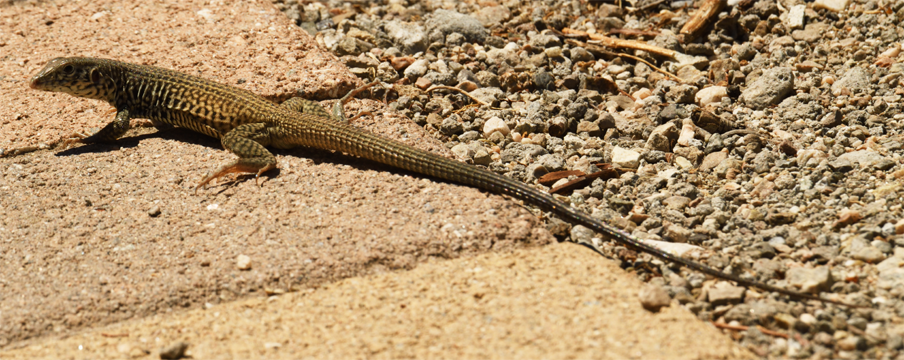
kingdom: Animalia
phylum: Chordata
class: Squamata
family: Teiidae
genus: Aspidoscelis
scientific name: Aspidoscelis tigris
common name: Tiger whiptail
